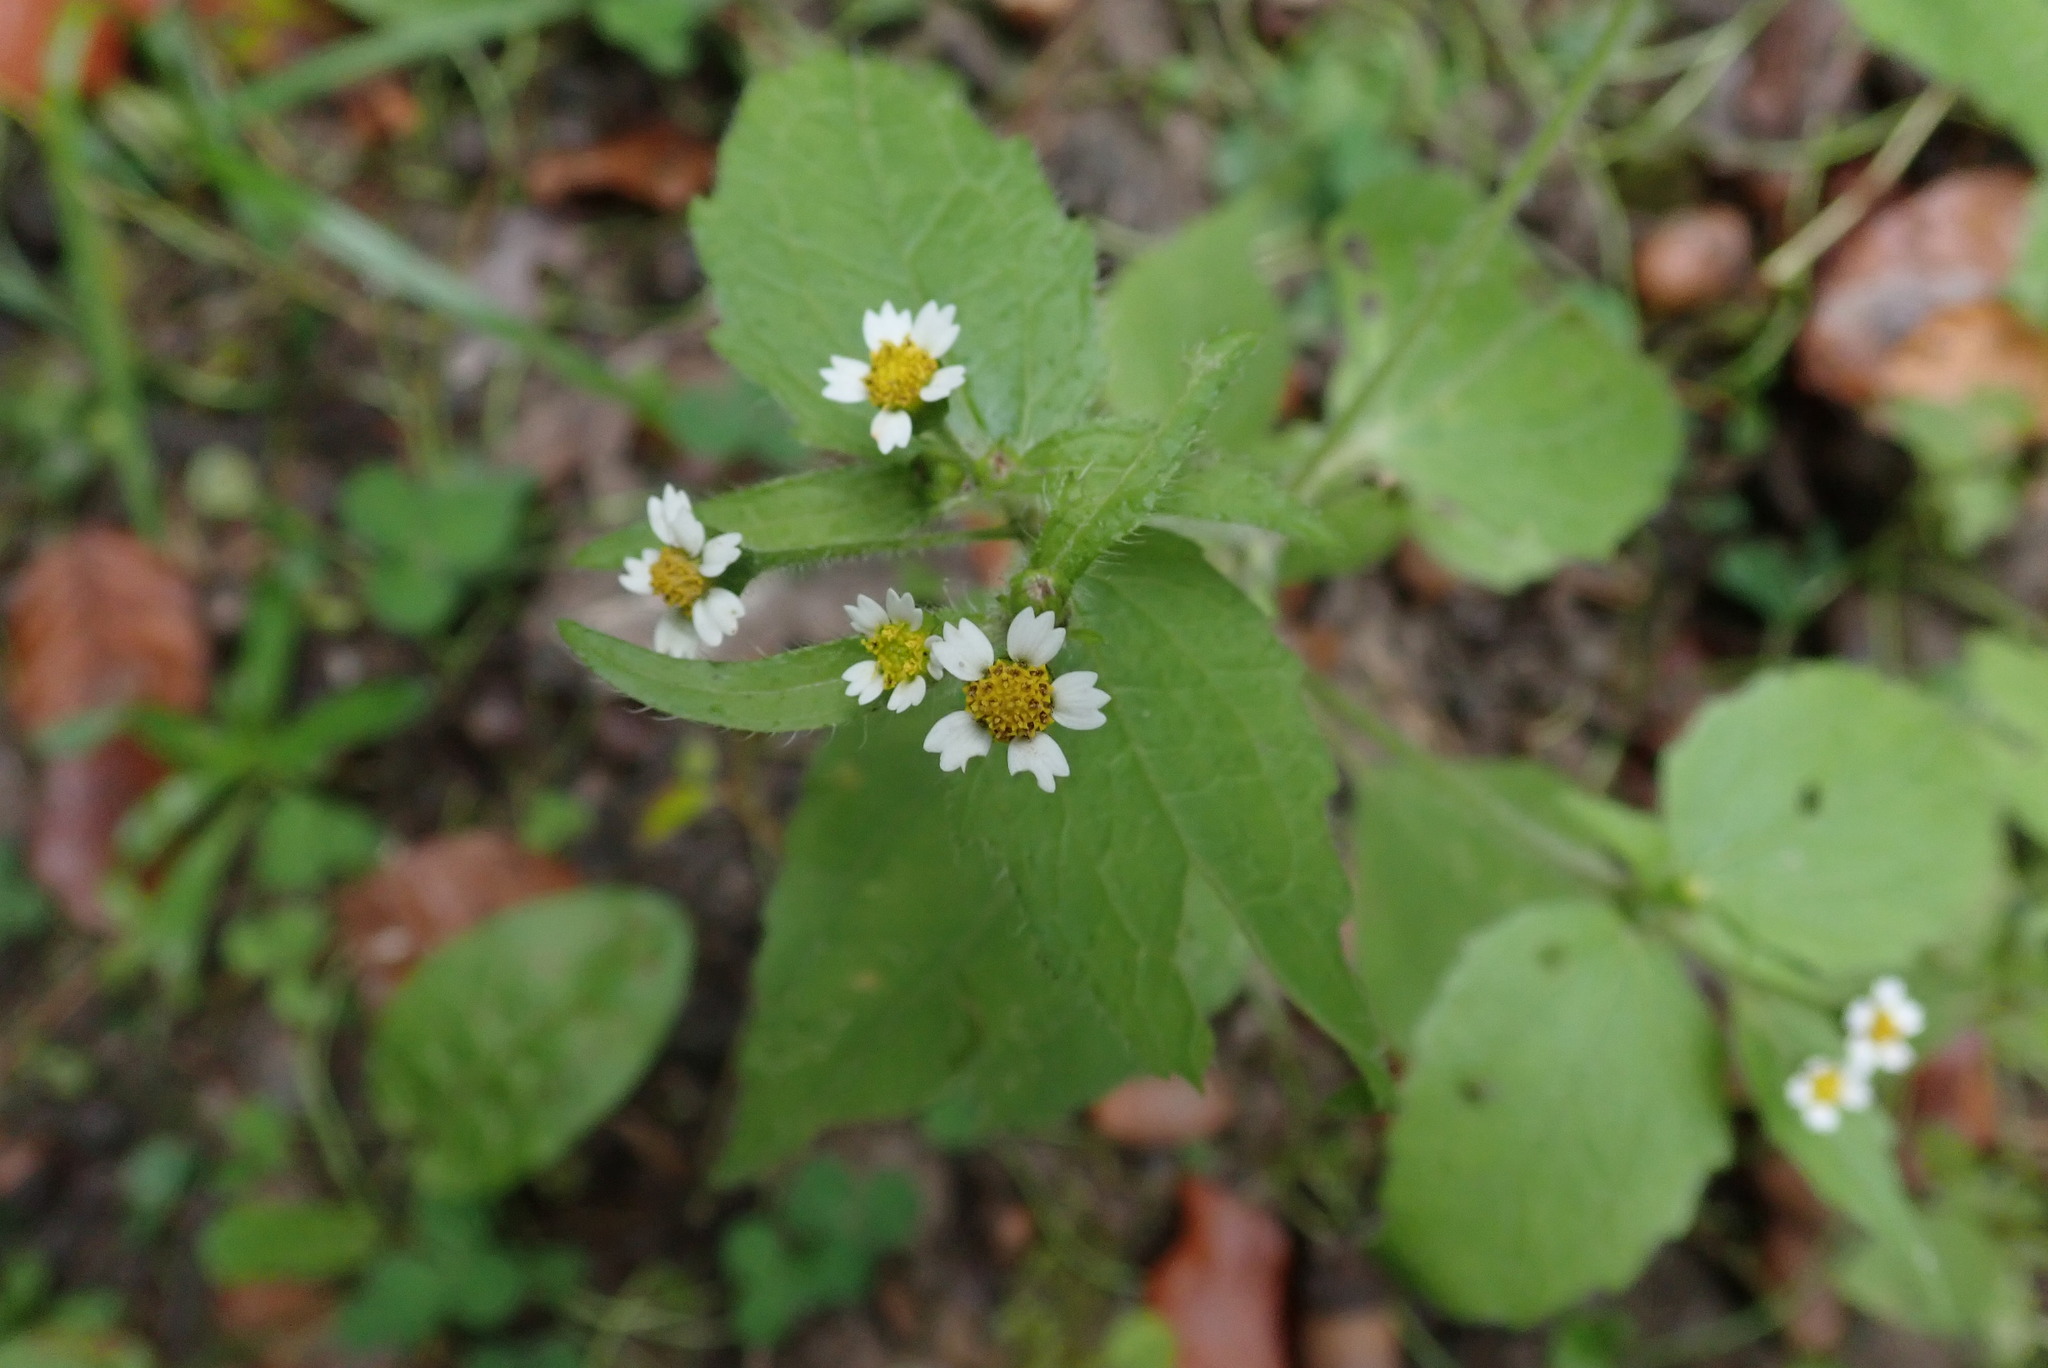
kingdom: Plantae
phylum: Tracheophyta
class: Magnoliopsida
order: Asterales
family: Asteraceae
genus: Galinsoga
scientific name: Galinsoga quadriradiata
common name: Shaggy soldier
